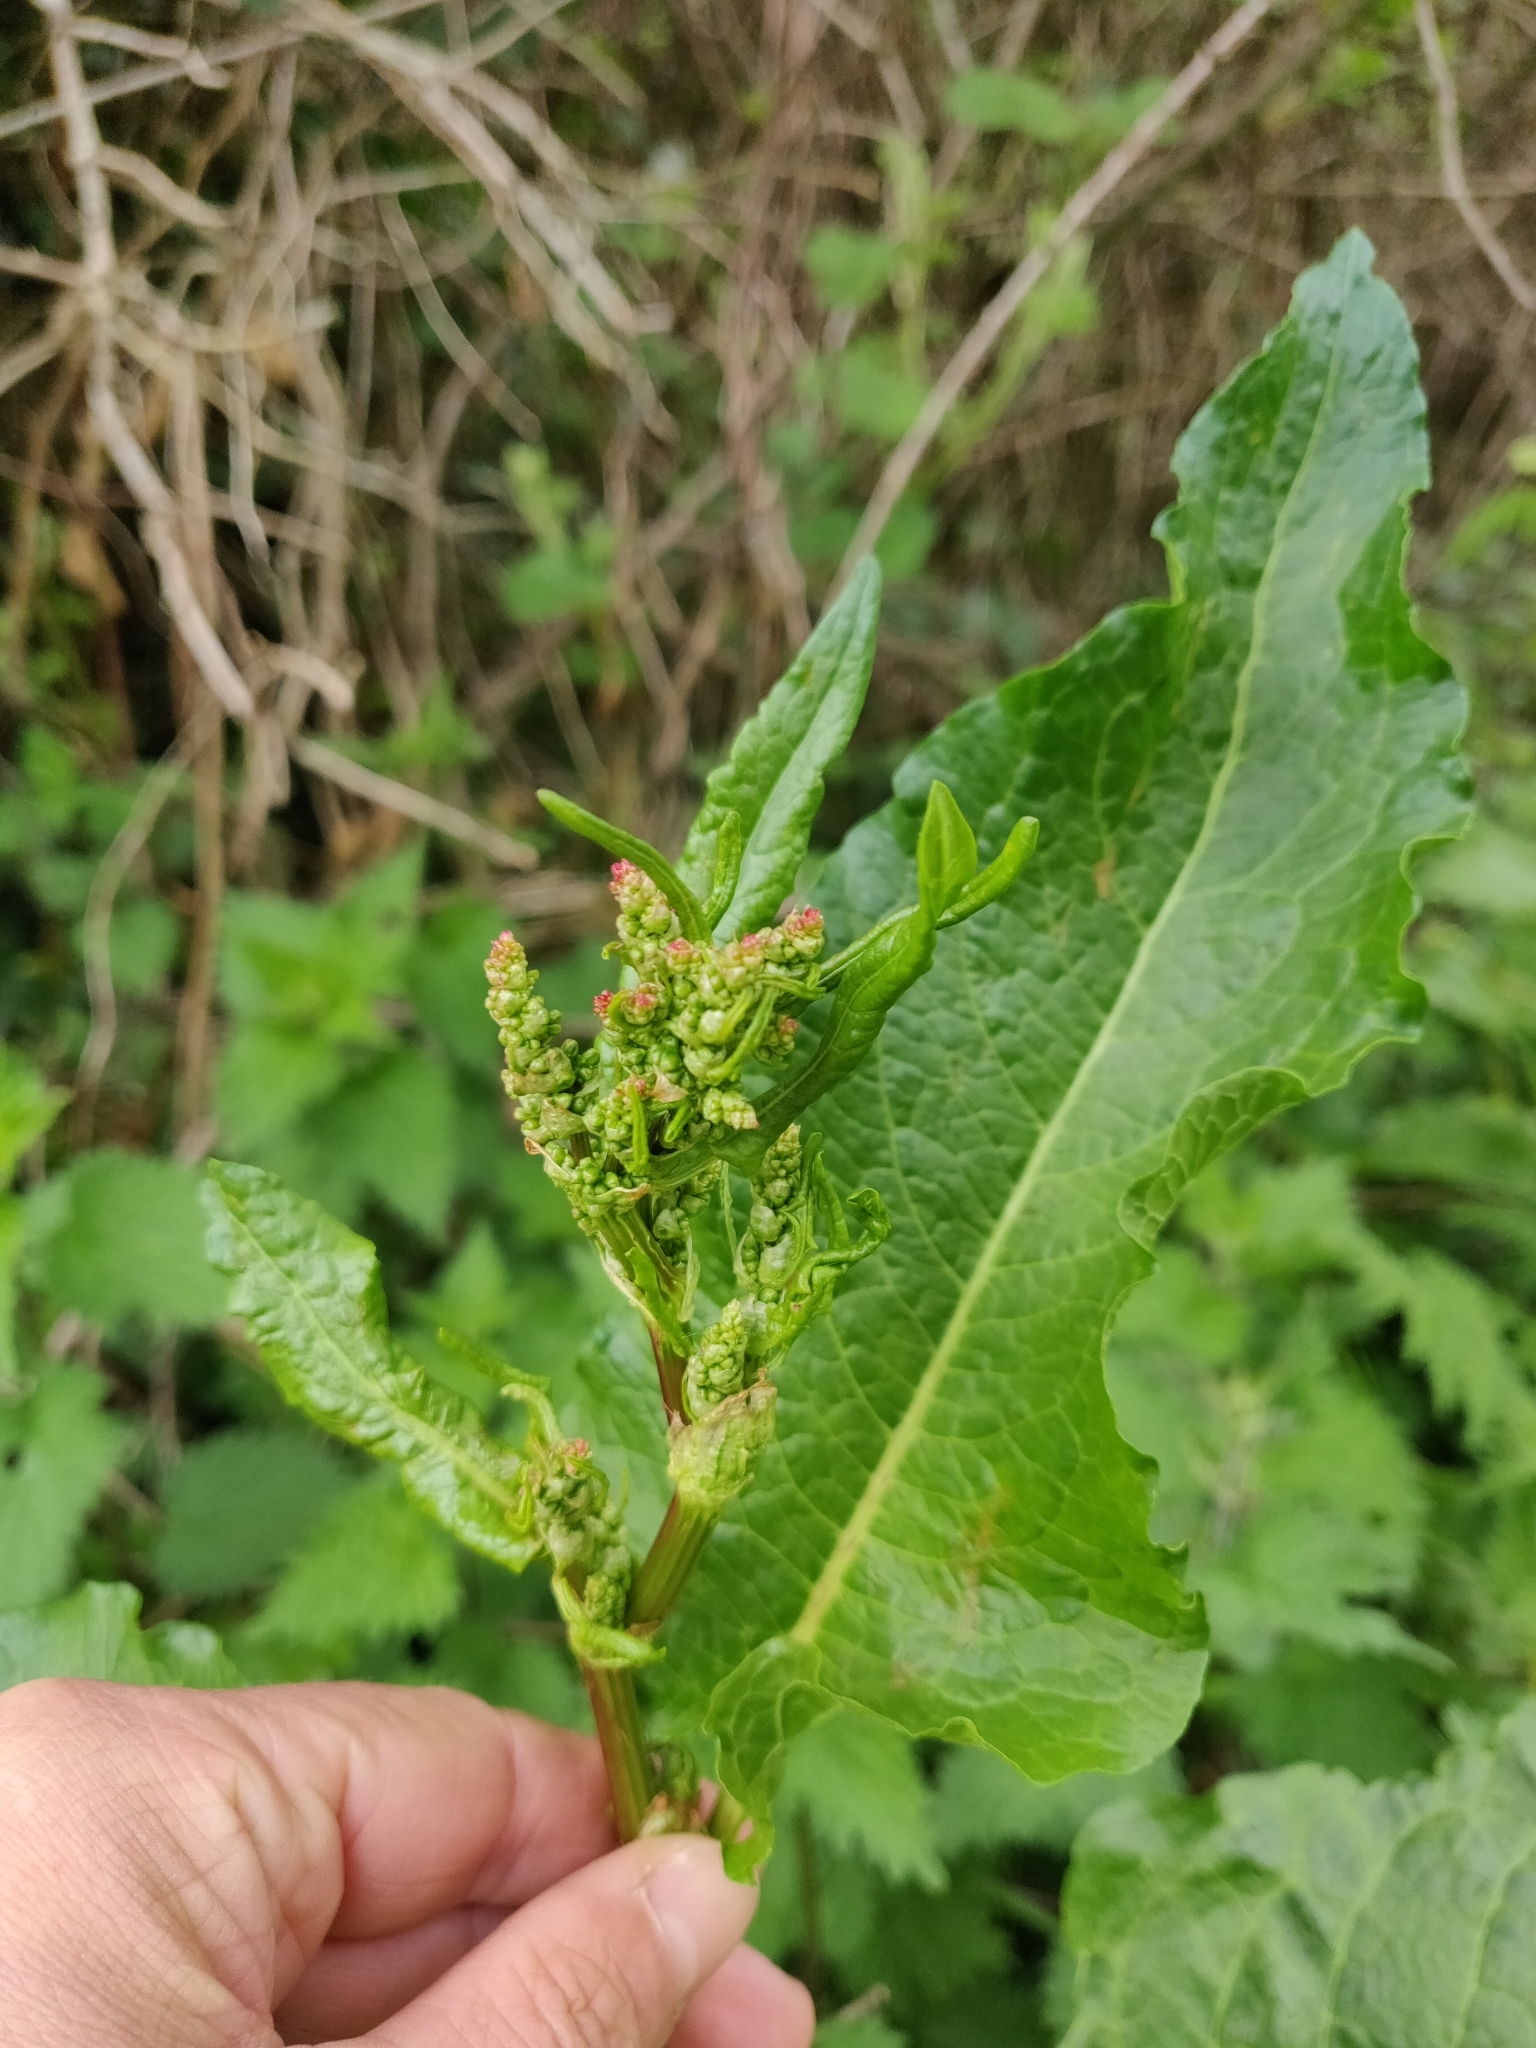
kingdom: Plantae
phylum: Tracheophyta
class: Magnoliopsida
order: Caryophyllales
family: Polygonaceae
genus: Rumex
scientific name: Rumex obtusifolius
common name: Bitter dock
